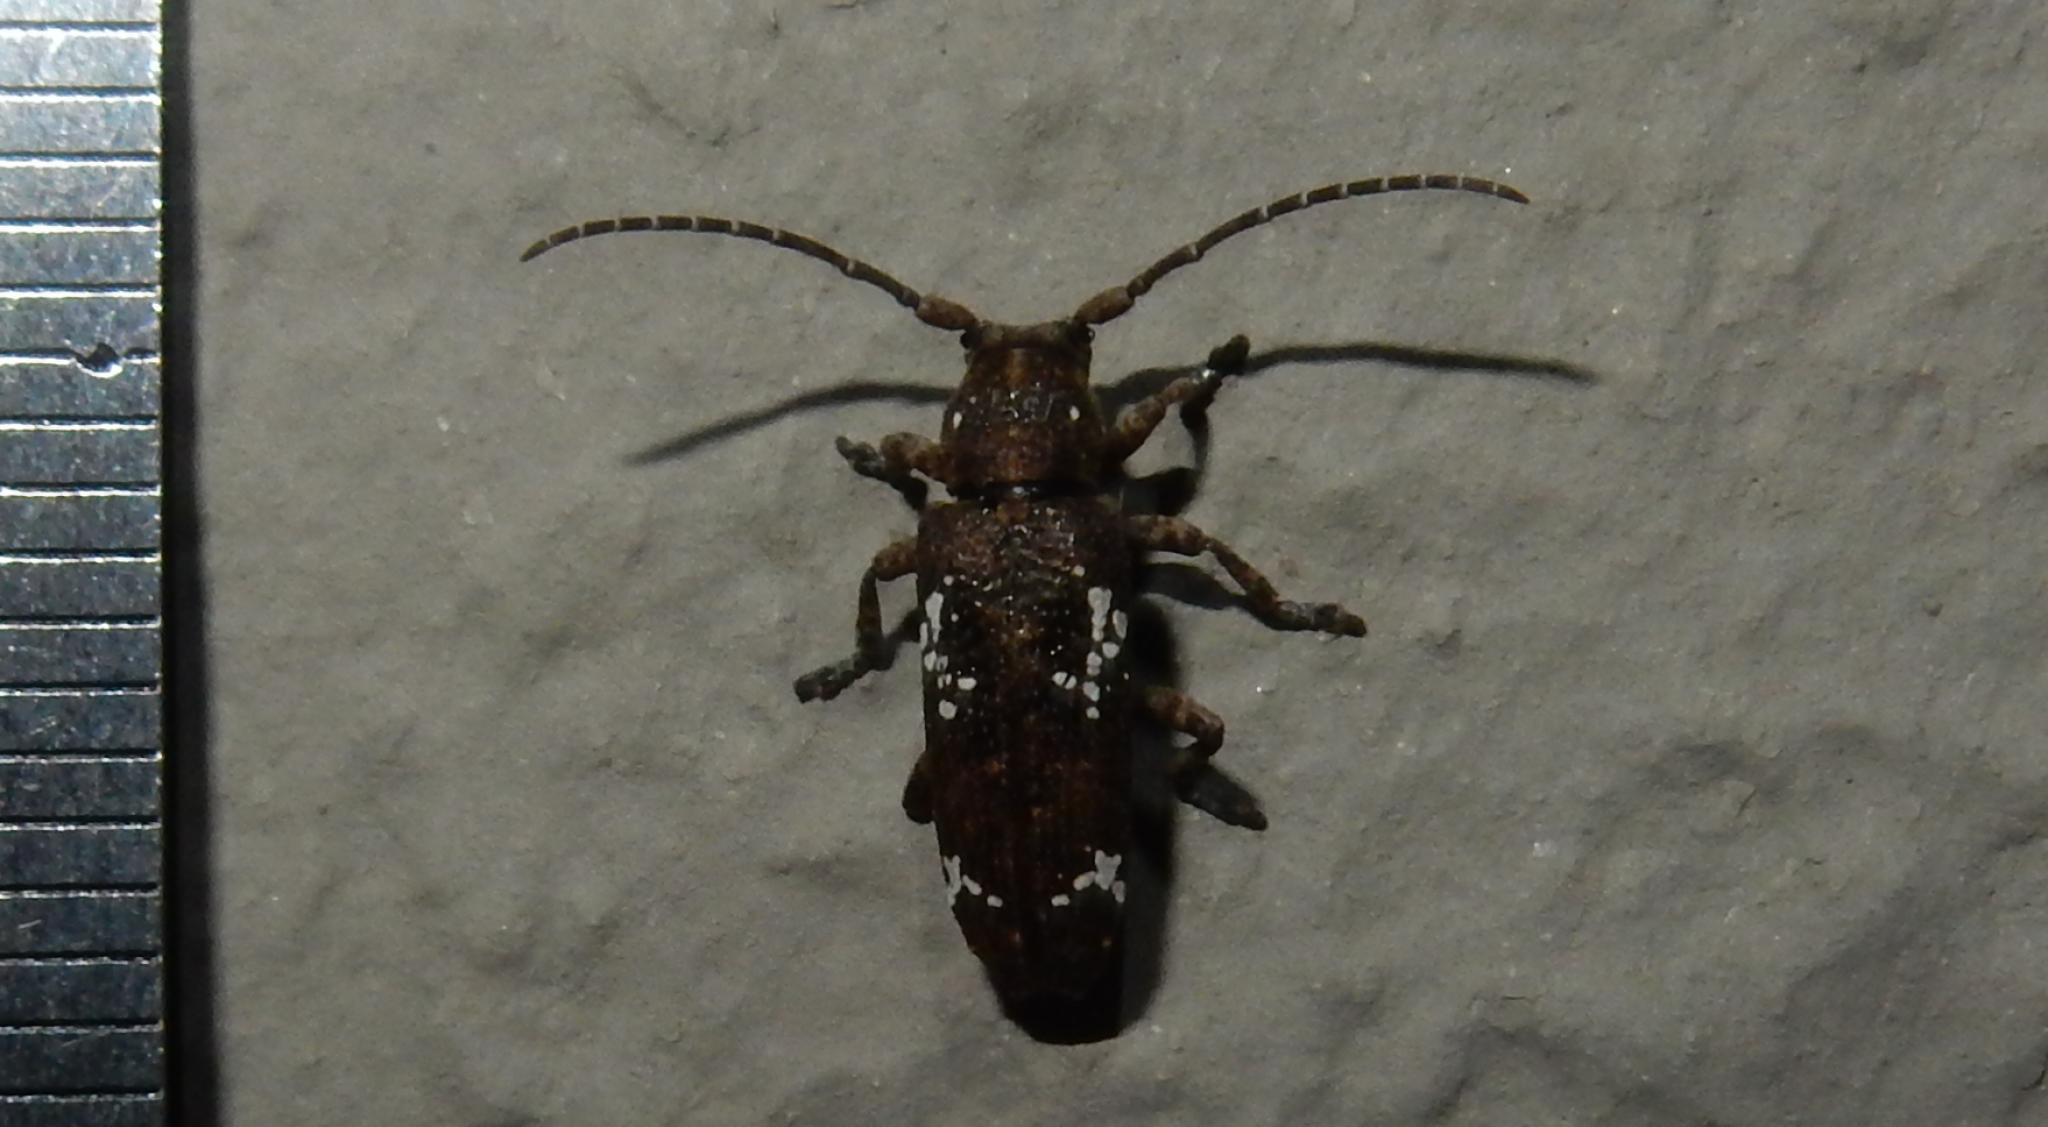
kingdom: Animalia
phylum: Arthropoda
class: Insecta
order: Coleoptera
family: Cerambycidae
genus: Apomecyna
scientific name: Apomecyna quadrisignata
